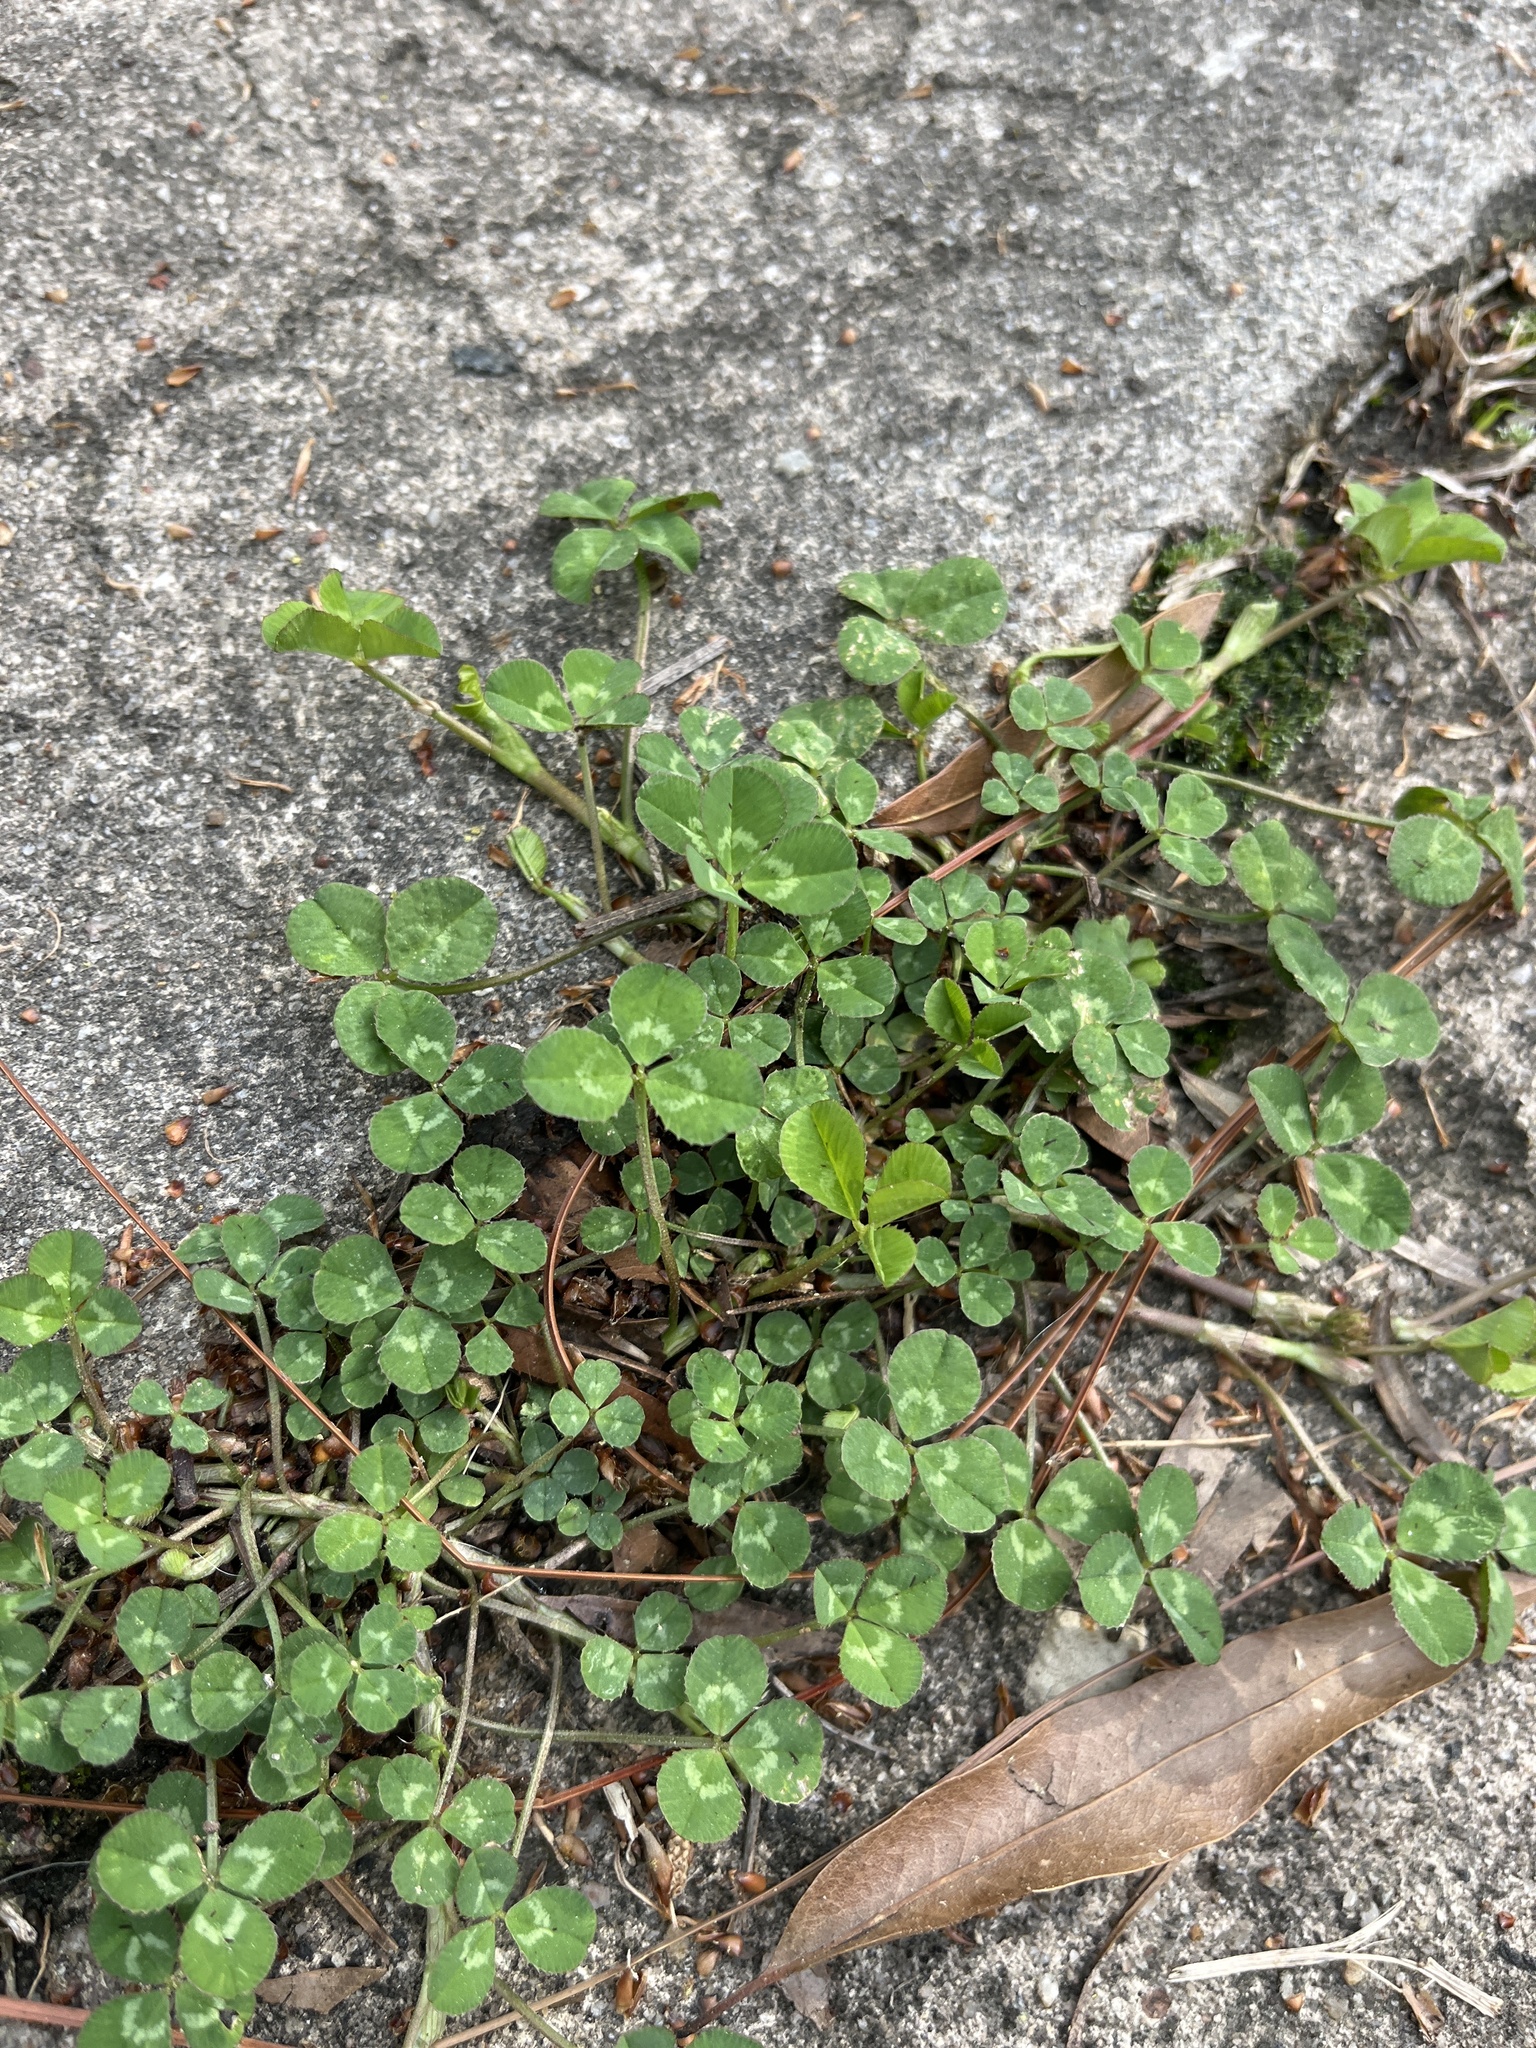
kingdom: Plantae
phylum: Tracheophyta
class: Magnoliopsida
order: Fabales
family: Fabaceae
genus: Trifolium
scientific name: Trifolium repens
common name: White clover
